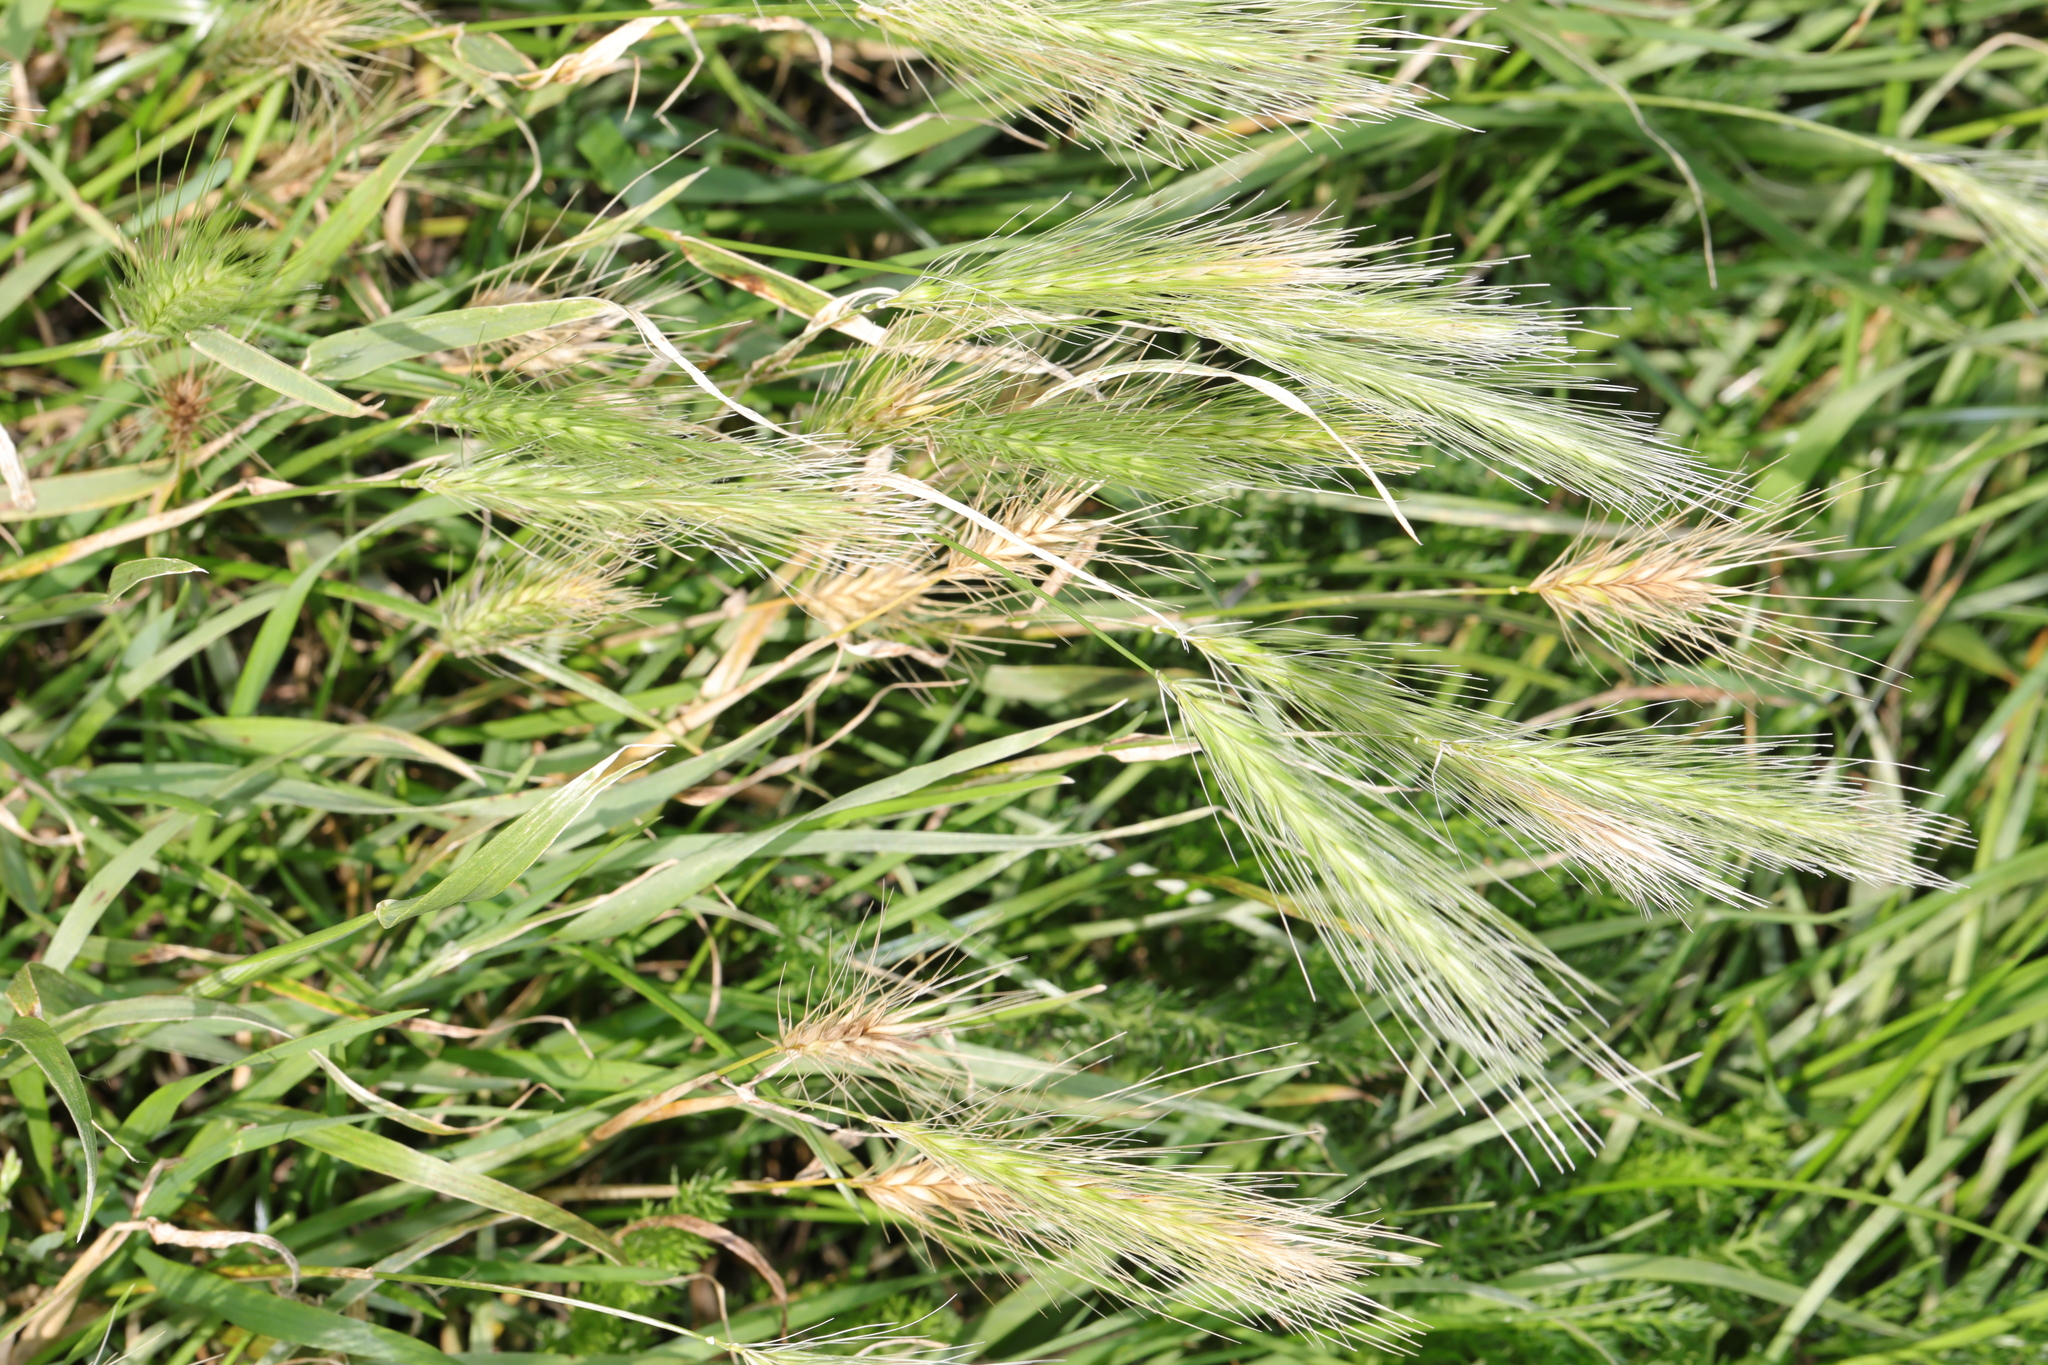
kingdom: Plantae
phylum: Tracheophyta
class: Liliopsida
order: Poales
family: Poaceae
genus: Hordeum
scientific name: Hordeum murinum
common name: Wall barley
